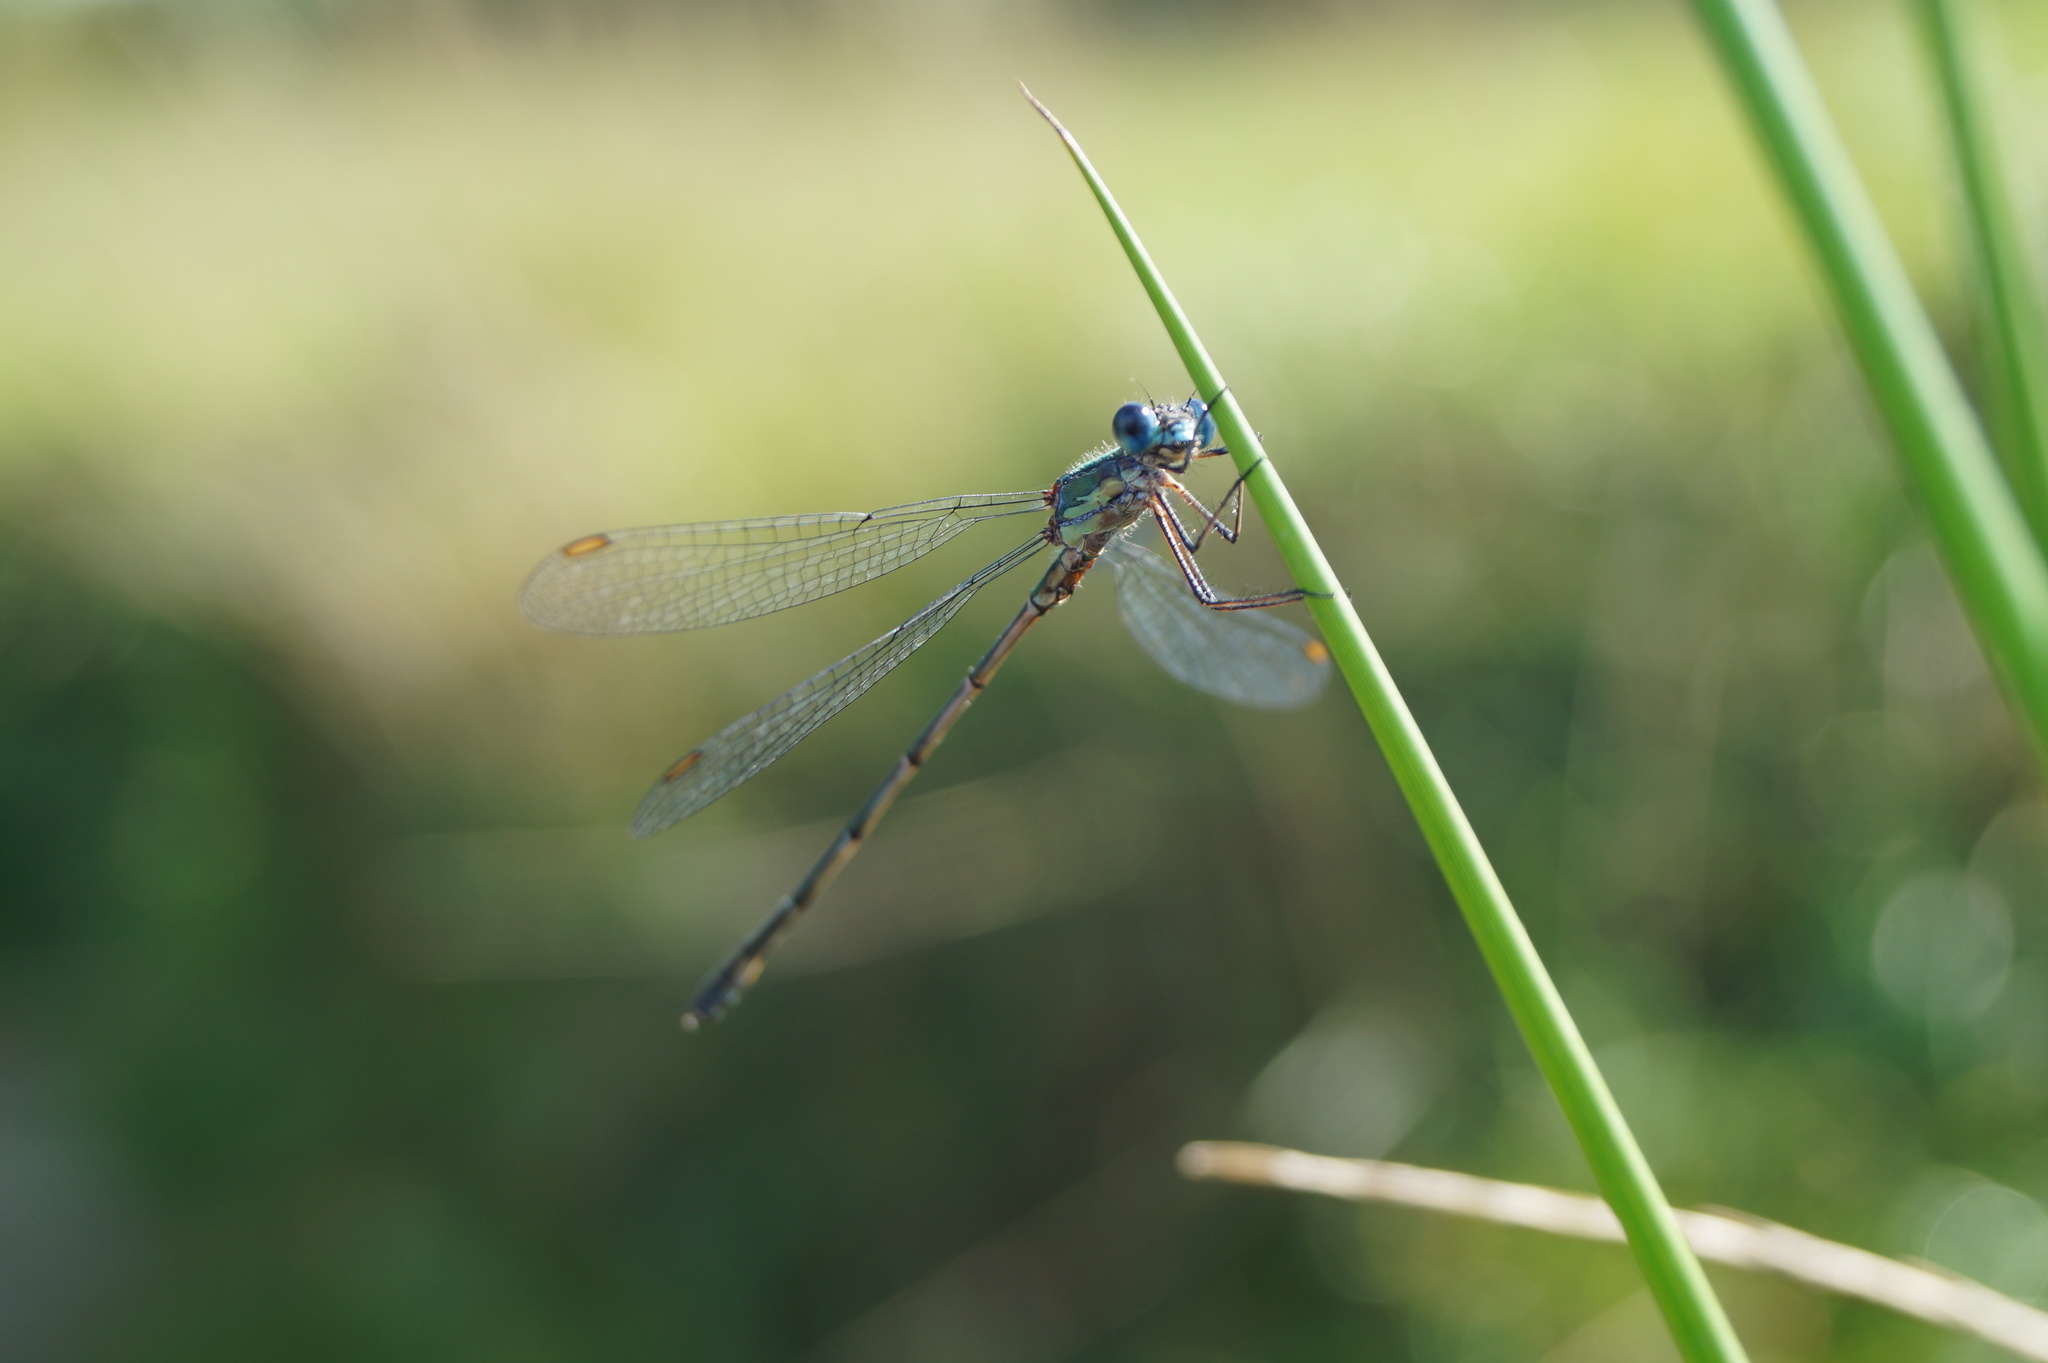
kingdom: Animalia
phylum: Arthropoda
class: Insecta
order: Odonata
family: Lestidae
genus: Chalcolestes
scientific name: Chalcolestes viridis
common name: Green emerald damselfly
